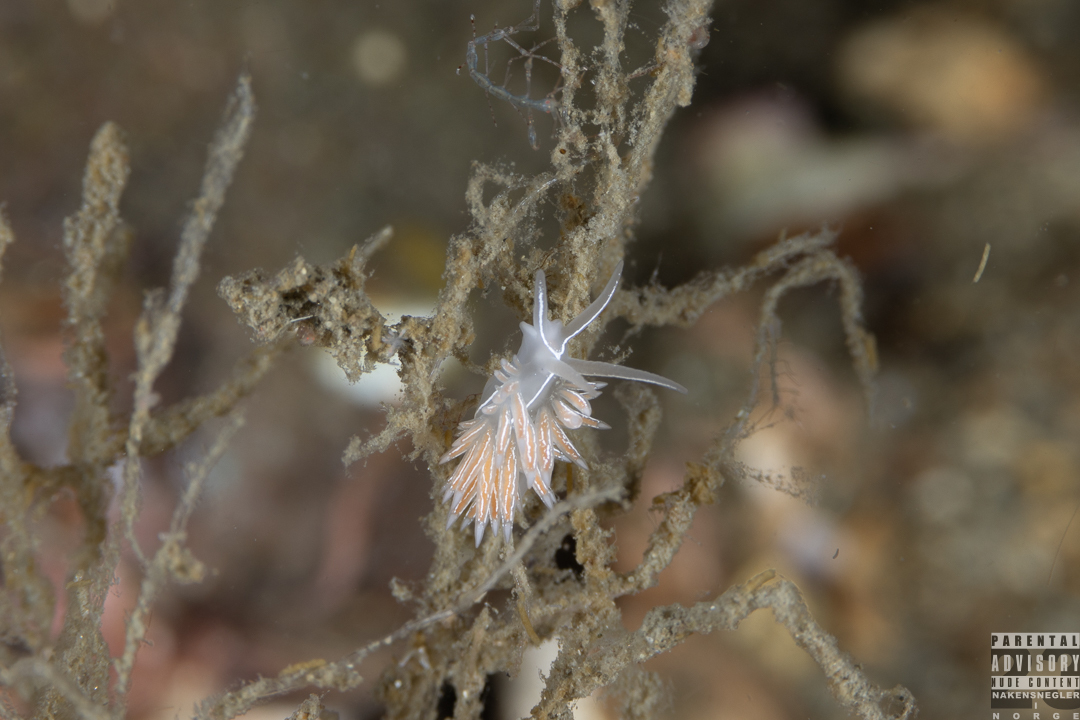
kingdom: Animalia
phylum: Mollusca
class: Gastropoda
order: Nudibranchia
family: Coryphellidae
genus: Coryphella
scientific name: Coryphella chriskaugei
